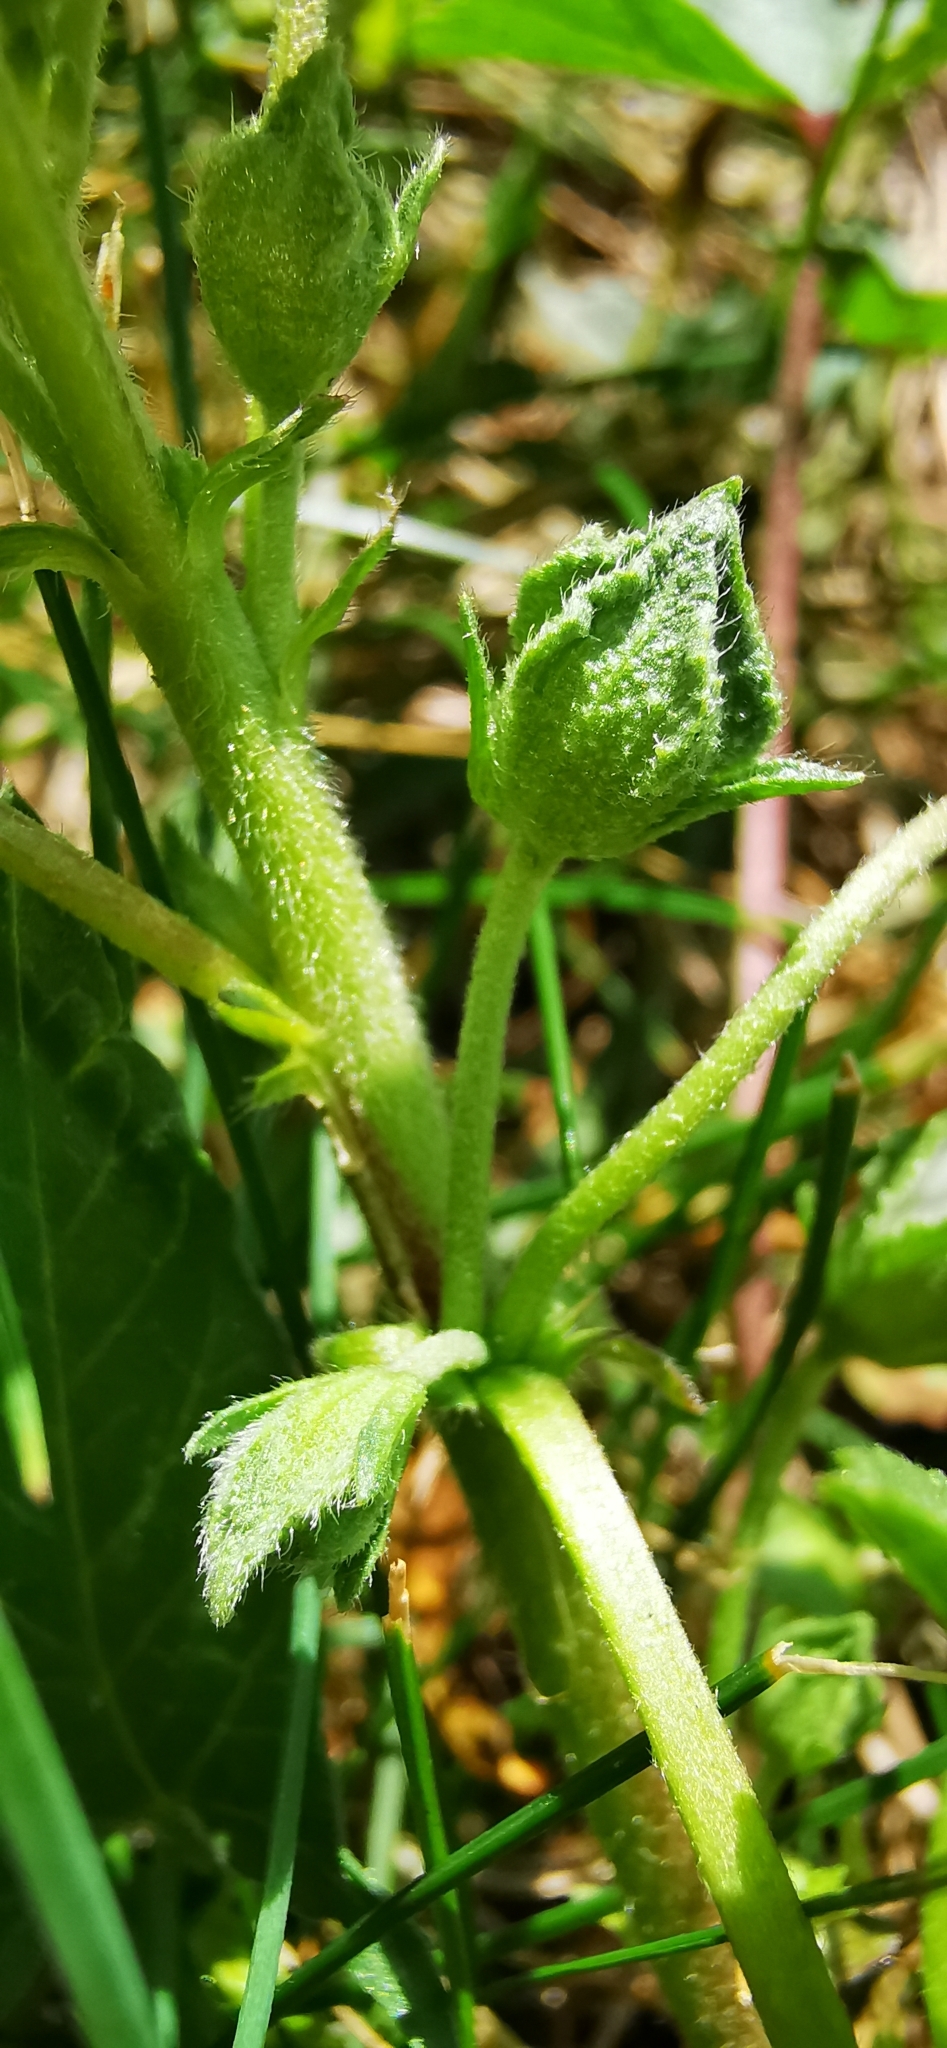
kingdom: Plantae
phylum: Tracheophyta
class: Magnoliopsida
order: Malvales
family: Malvaceae
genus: Malva
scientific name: Malva neglecta
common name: Common mallow
